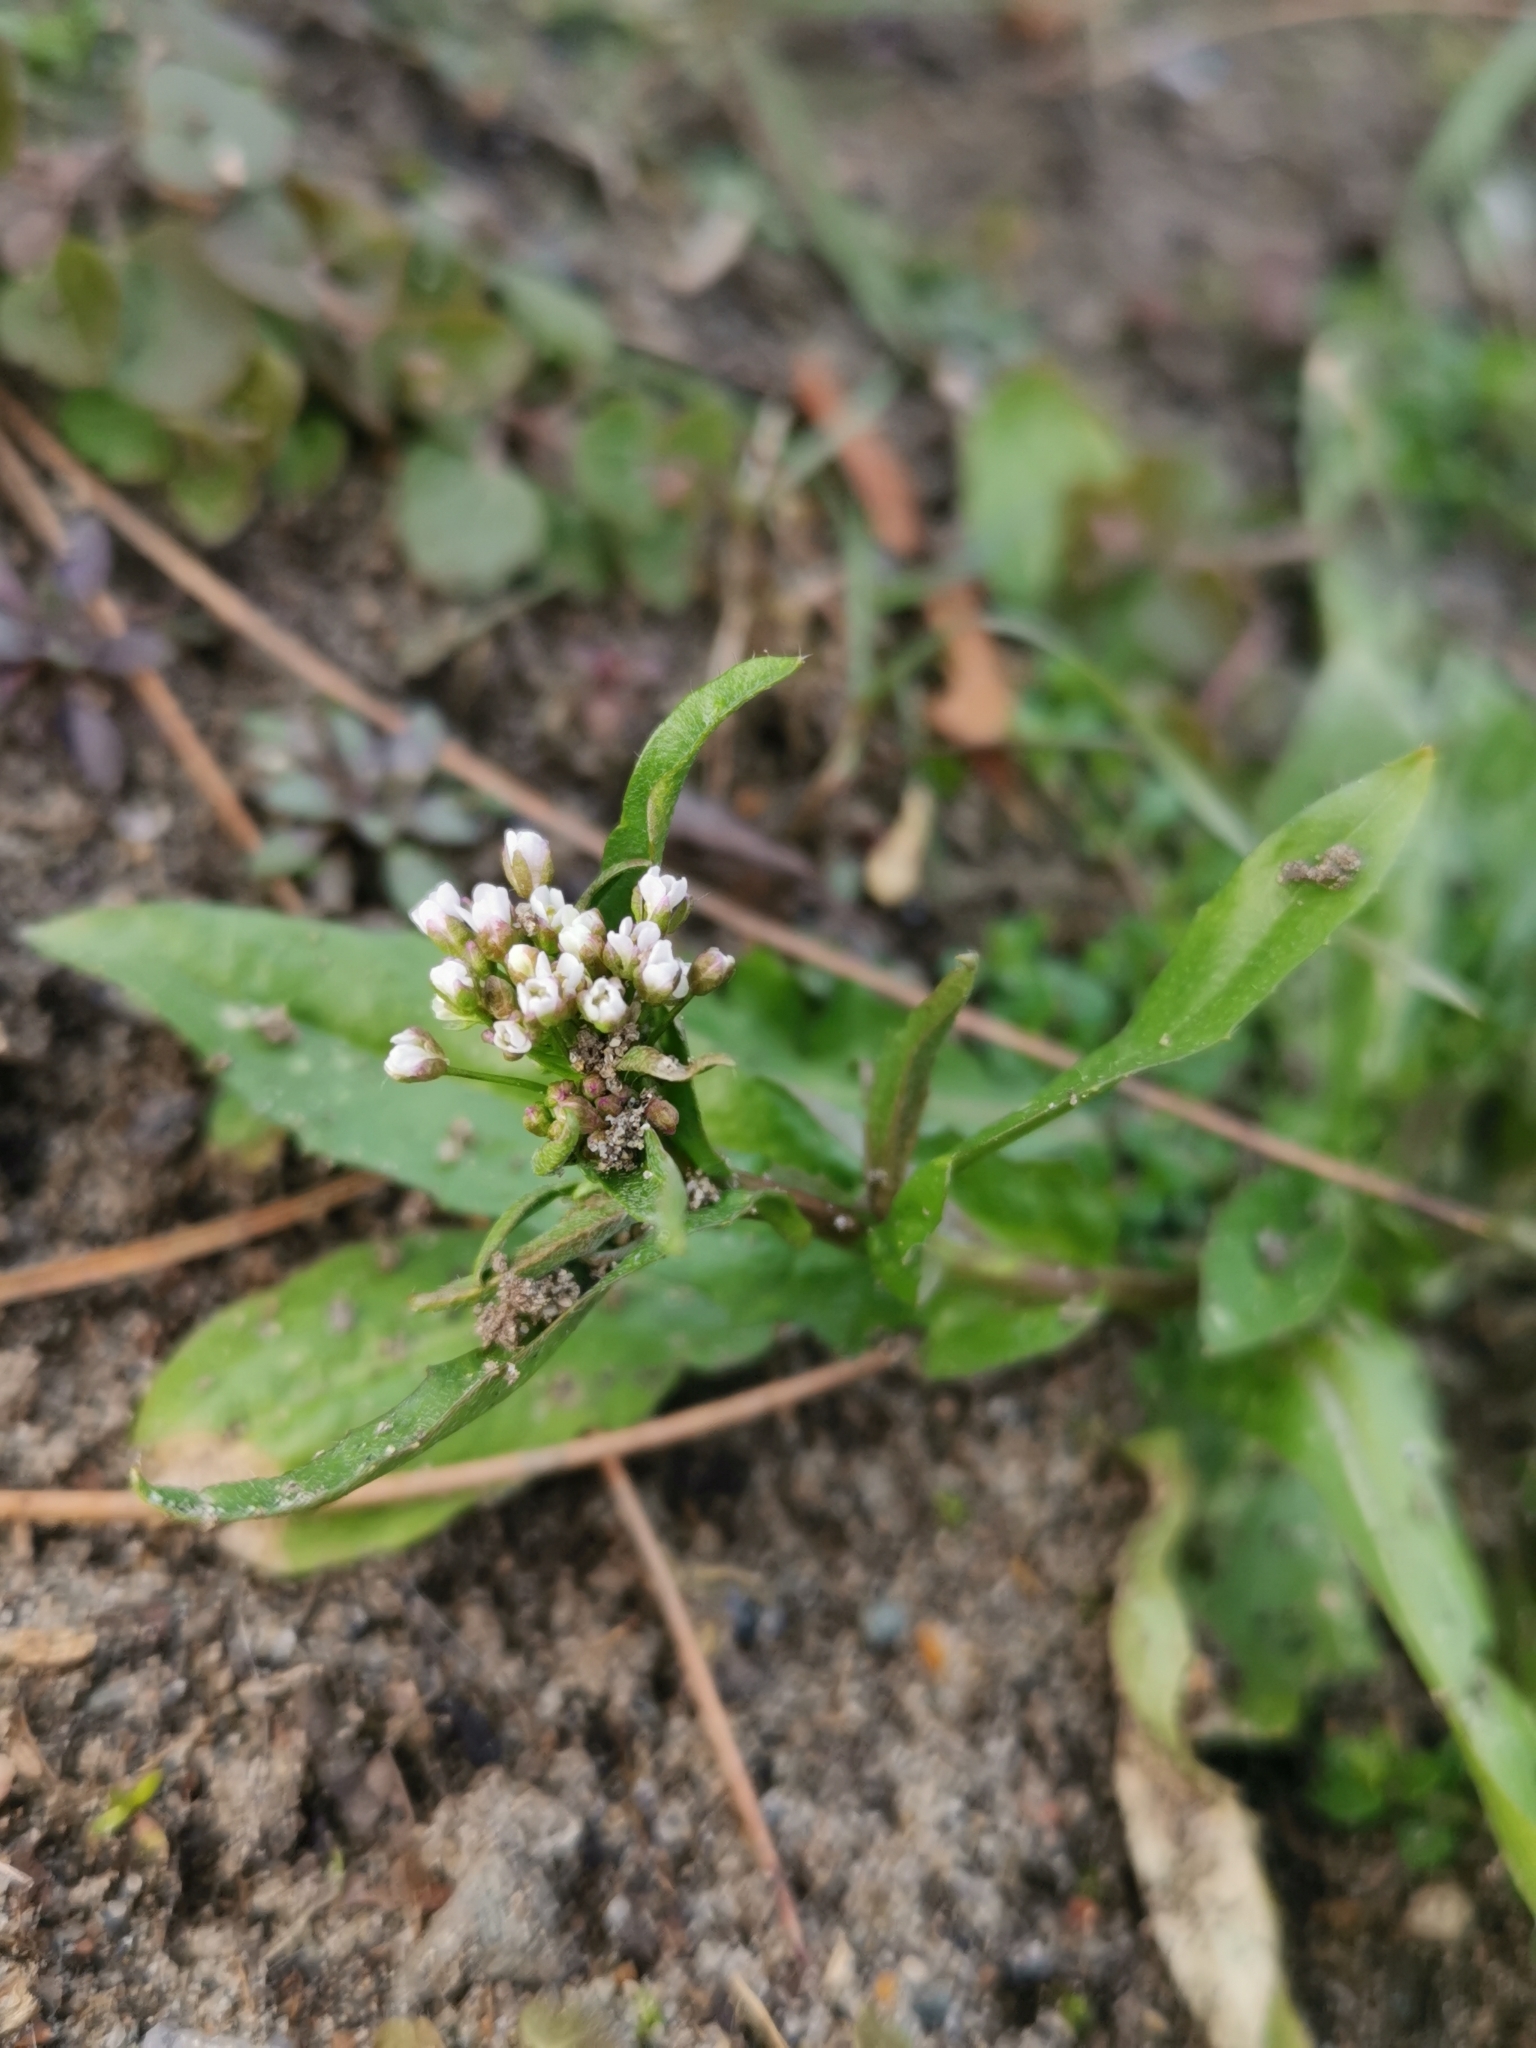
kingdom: Plantae
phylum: Tracheophyta
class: Magnoliopsida
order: Brassicales
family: Brassicaceae
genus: Capsella
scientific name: Capsella bursa-pastoris
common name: Shepherd's purse
